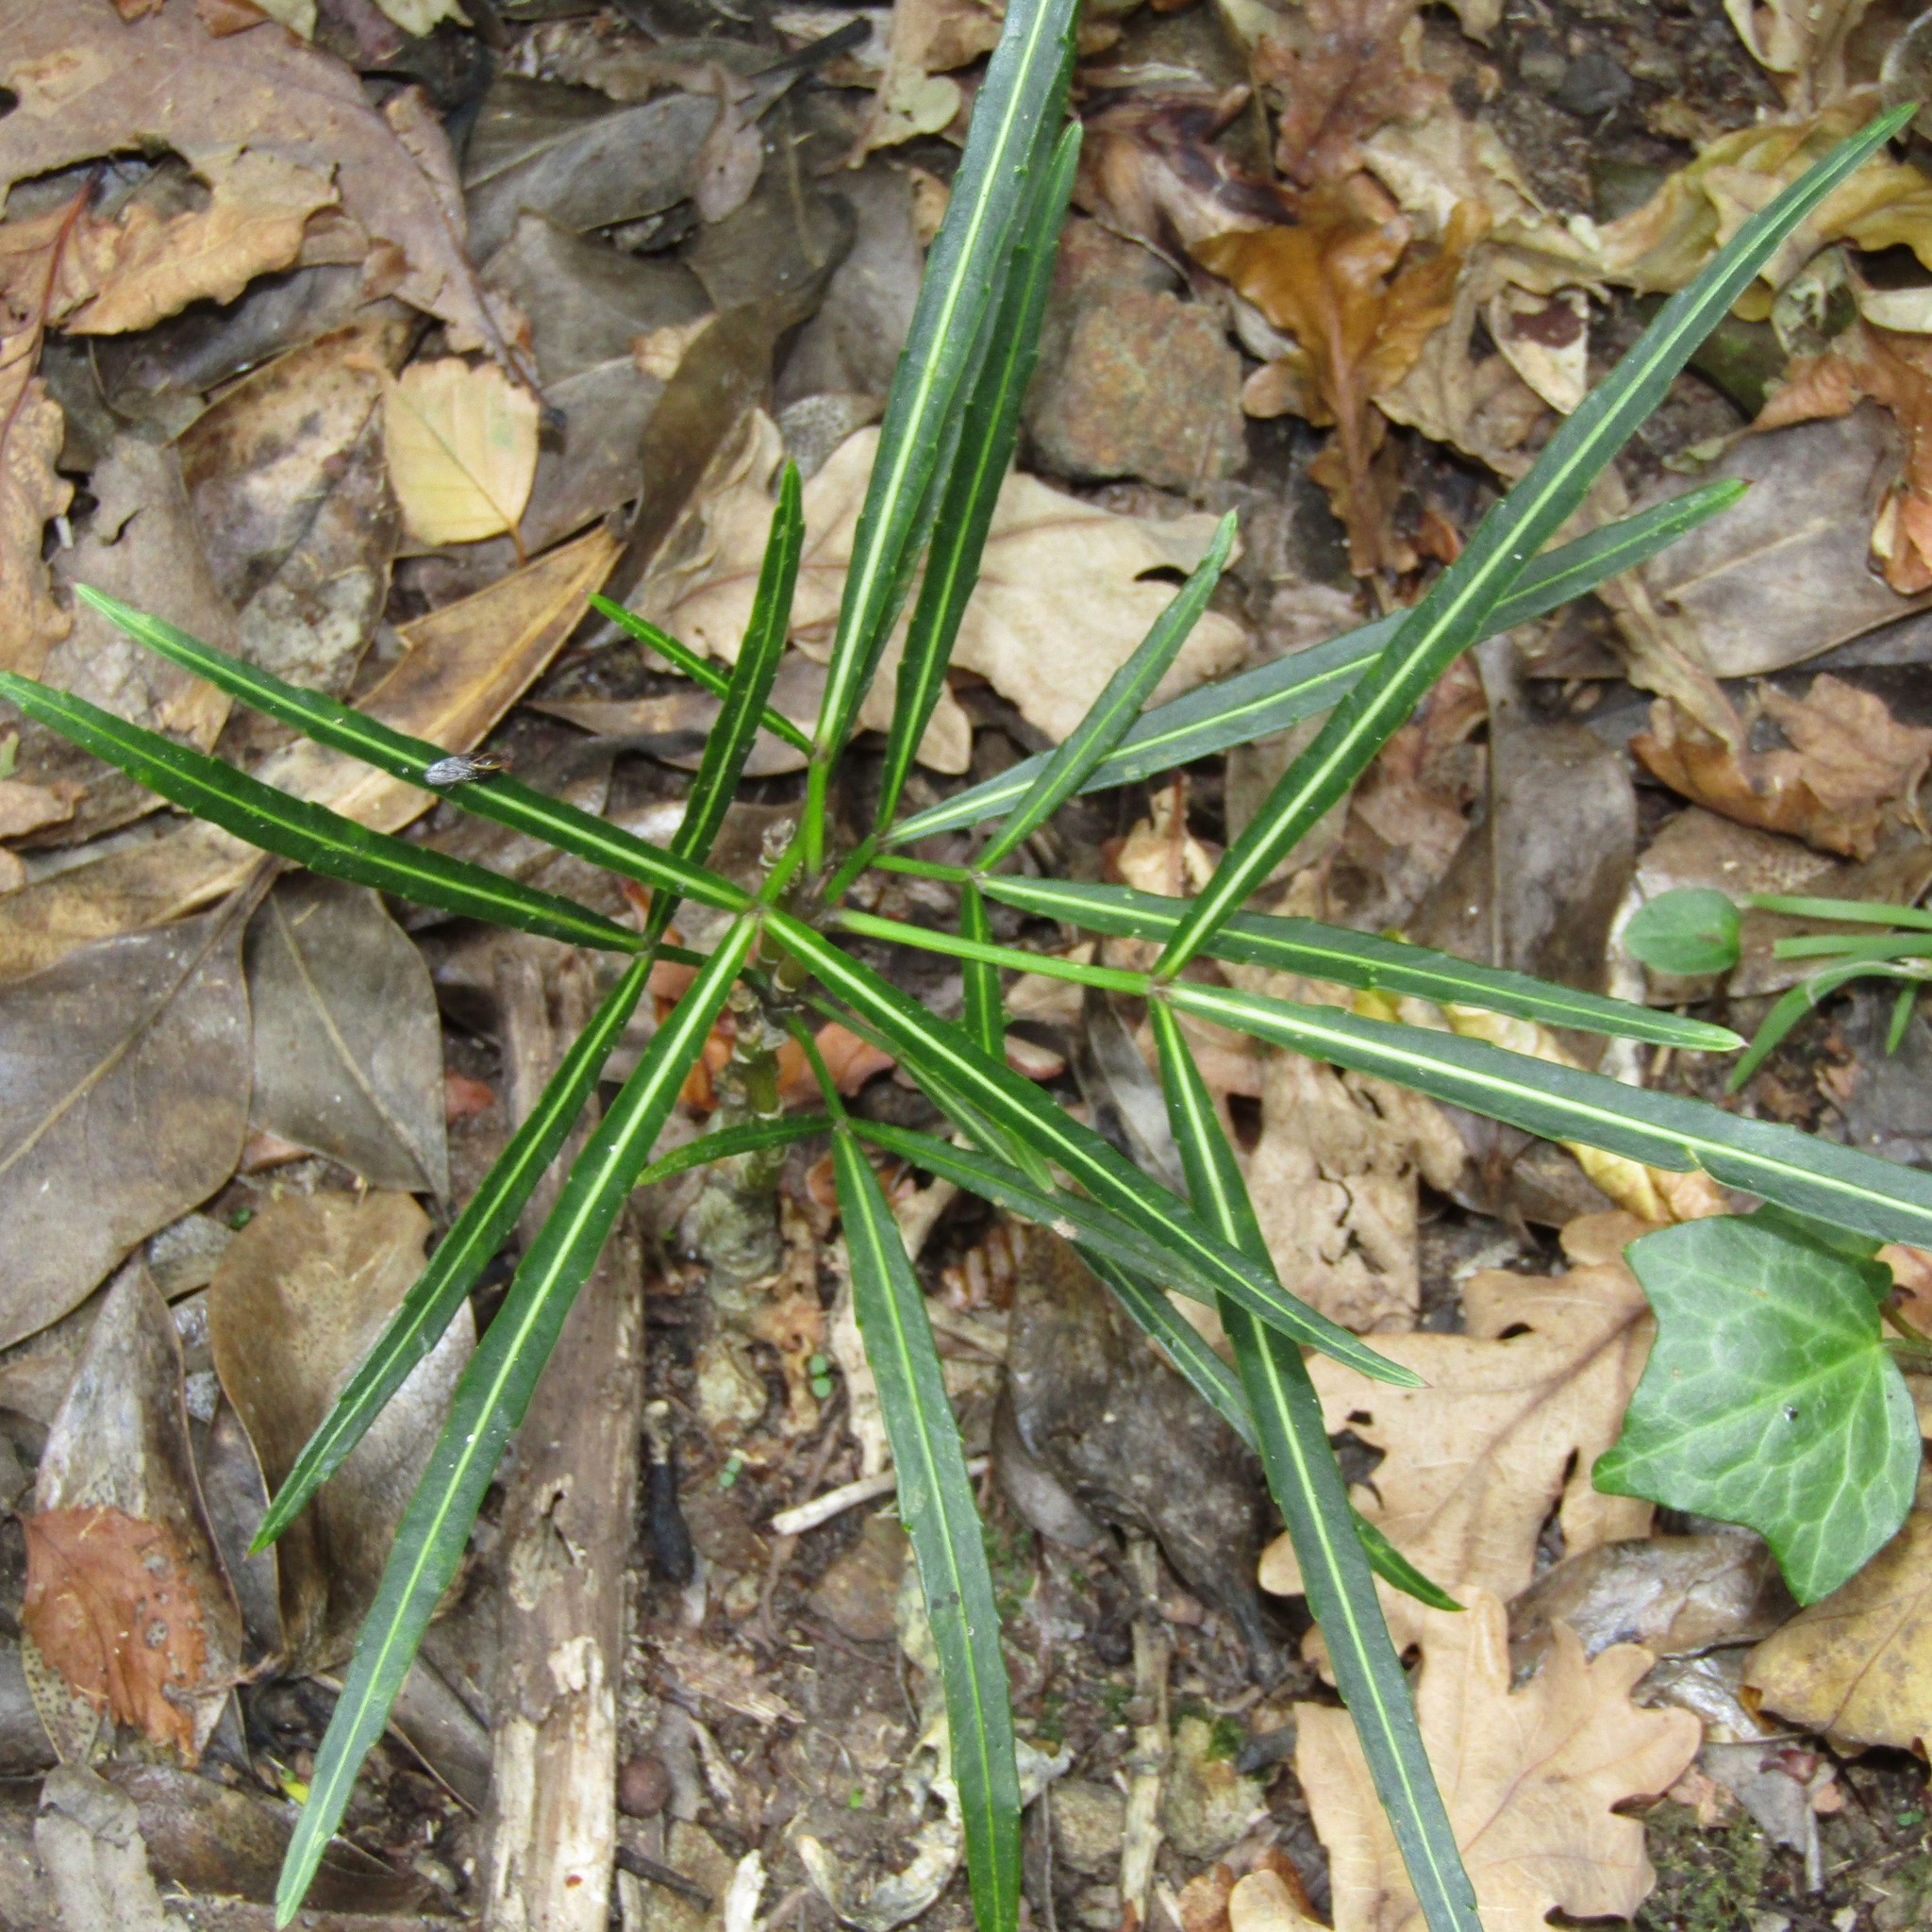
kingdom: Plantae
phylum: Tracheophyta
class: Magnoliopsida
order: Apiales
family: Araliaceae
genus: Pseudopanax
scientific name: Pseudopanax
